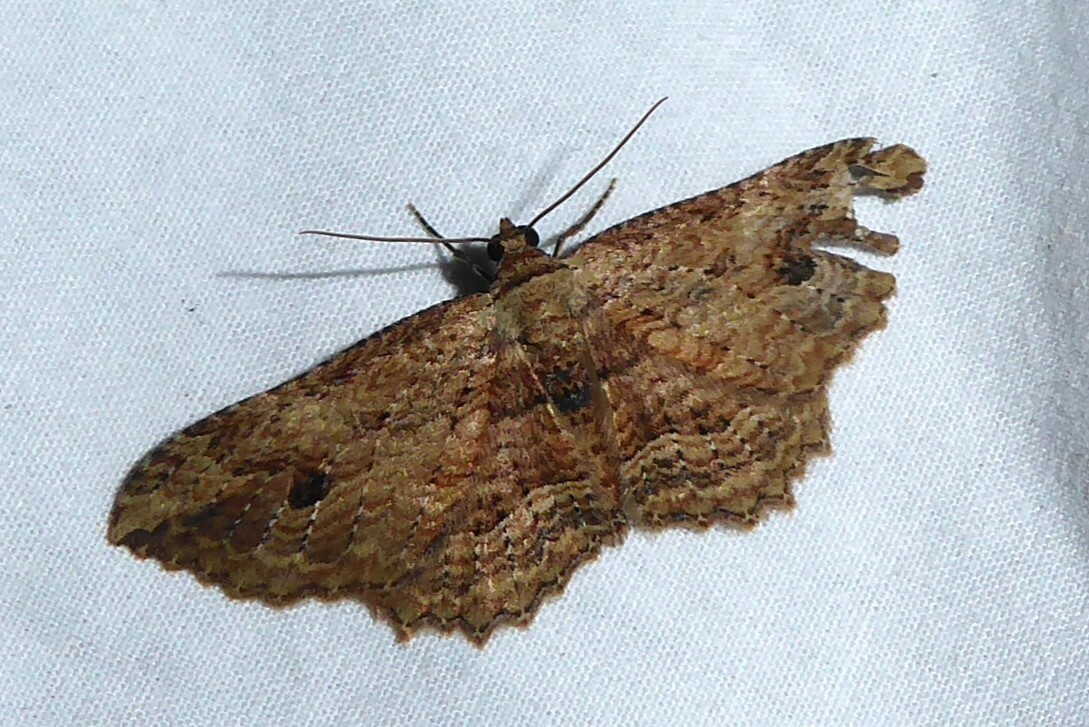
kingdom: Animalia
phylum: Arthropoda
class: Insecta
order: Lepidoptera
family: Geometridae
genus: Austrocidaria
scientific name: Austrocidaria bipartita
